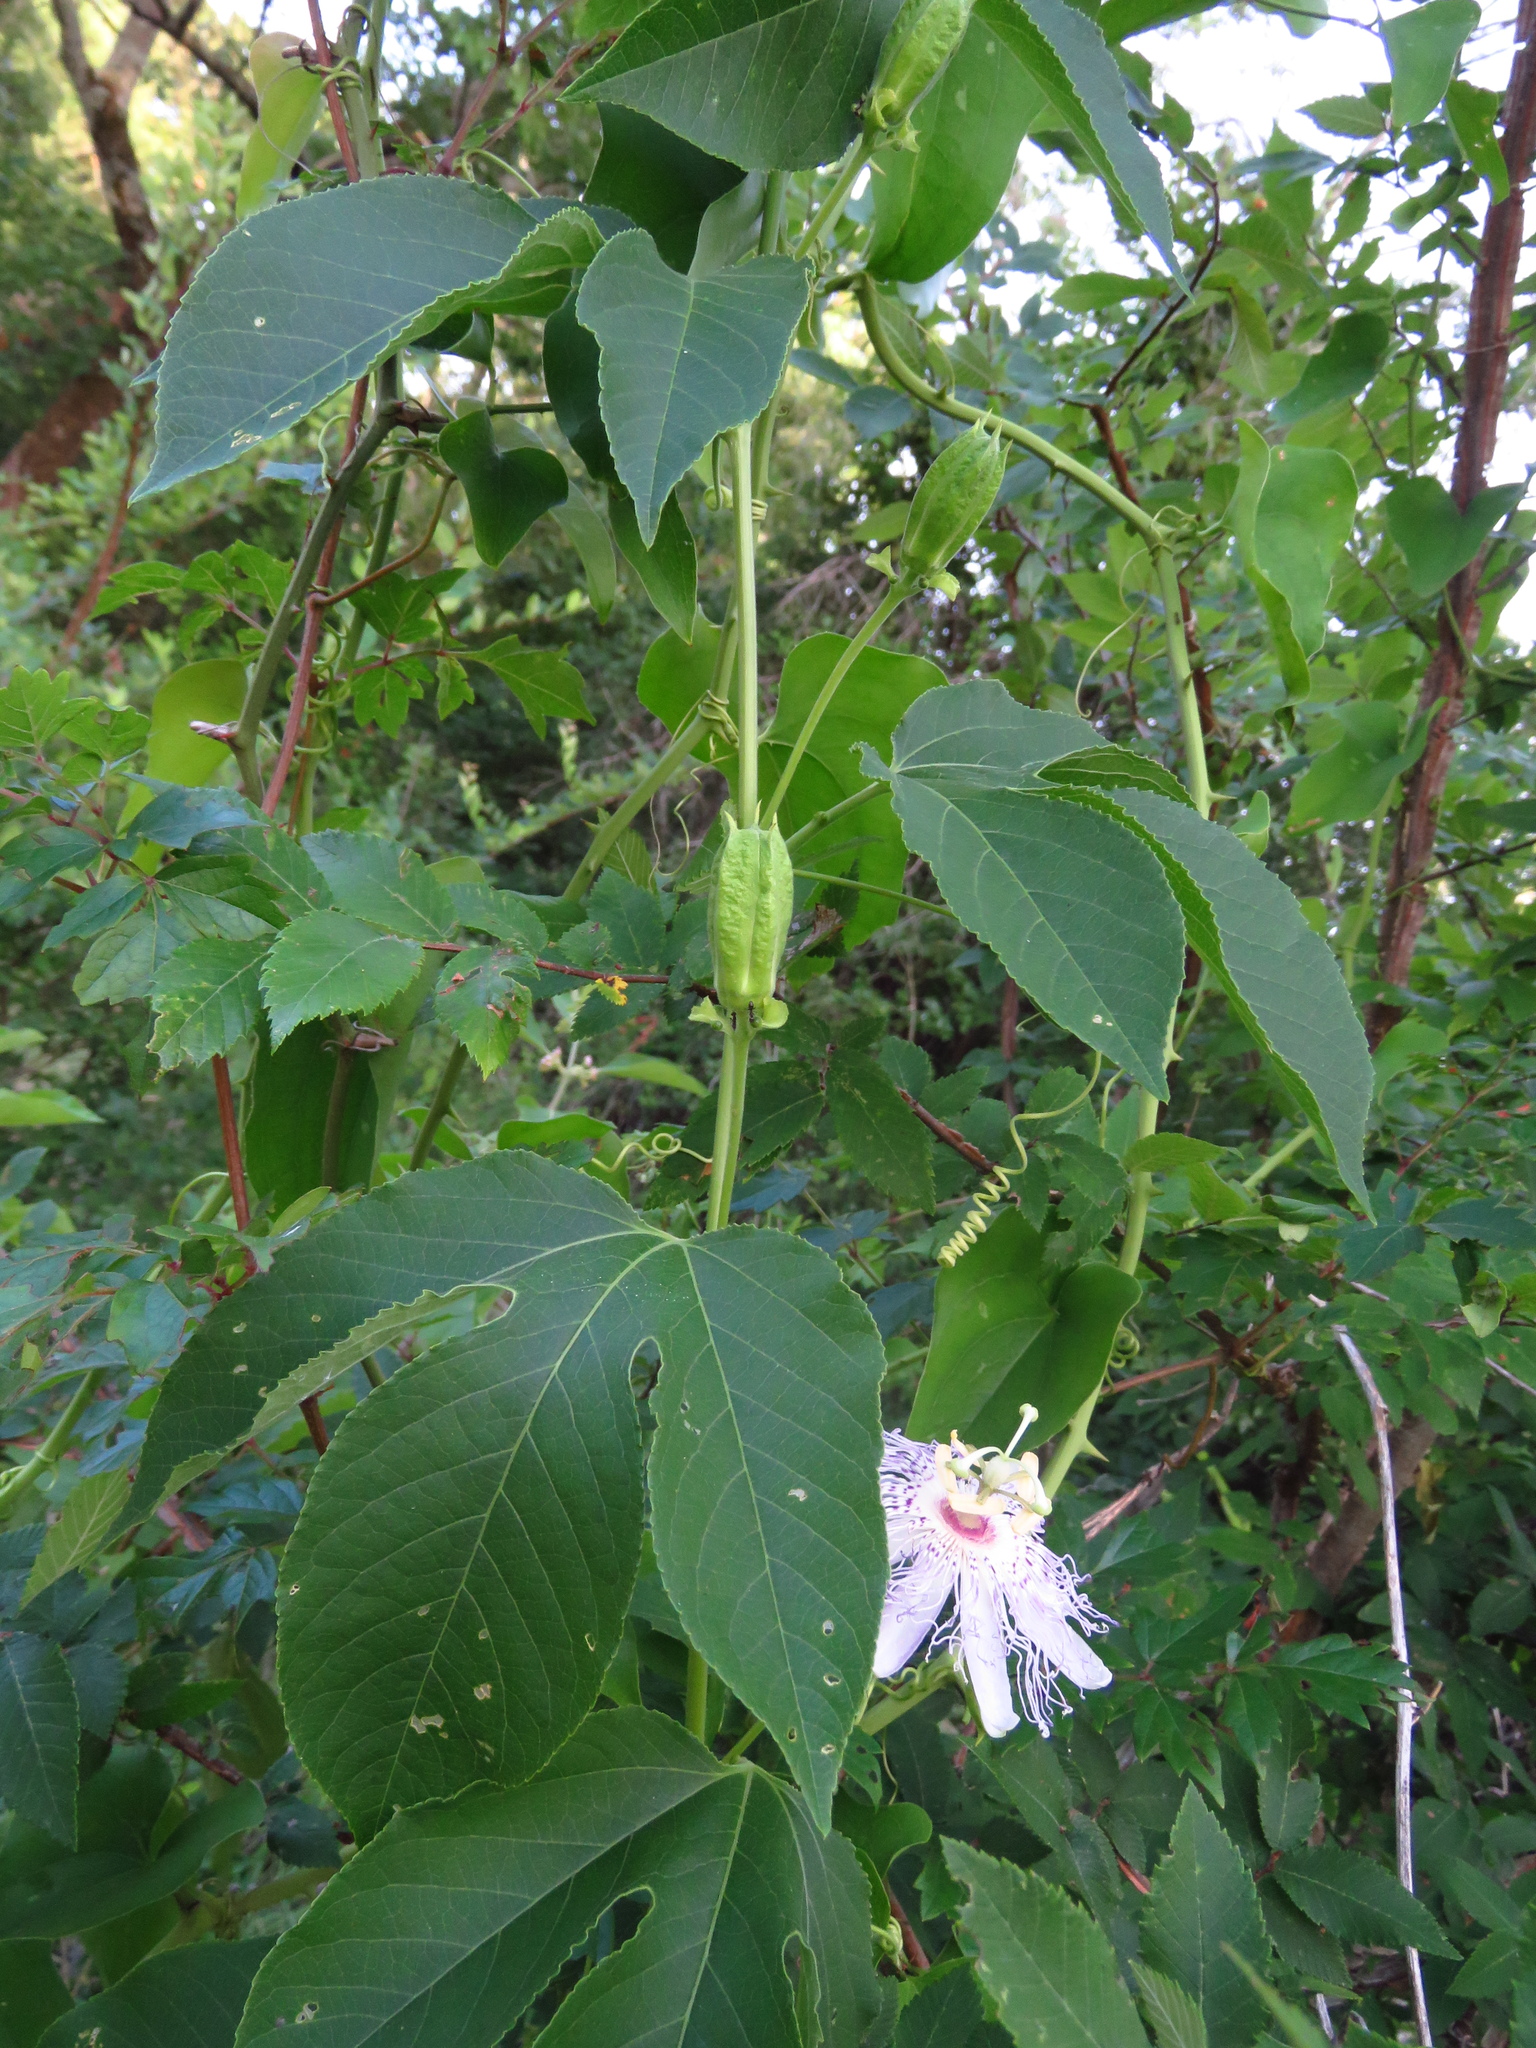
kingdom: Plantae
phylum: Tracheophyta
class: Magnoliopsida
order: Malpighiales
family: Passifloraceae
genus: Passiflora
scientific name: Passiflora incarnata
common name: Apricot-vine
